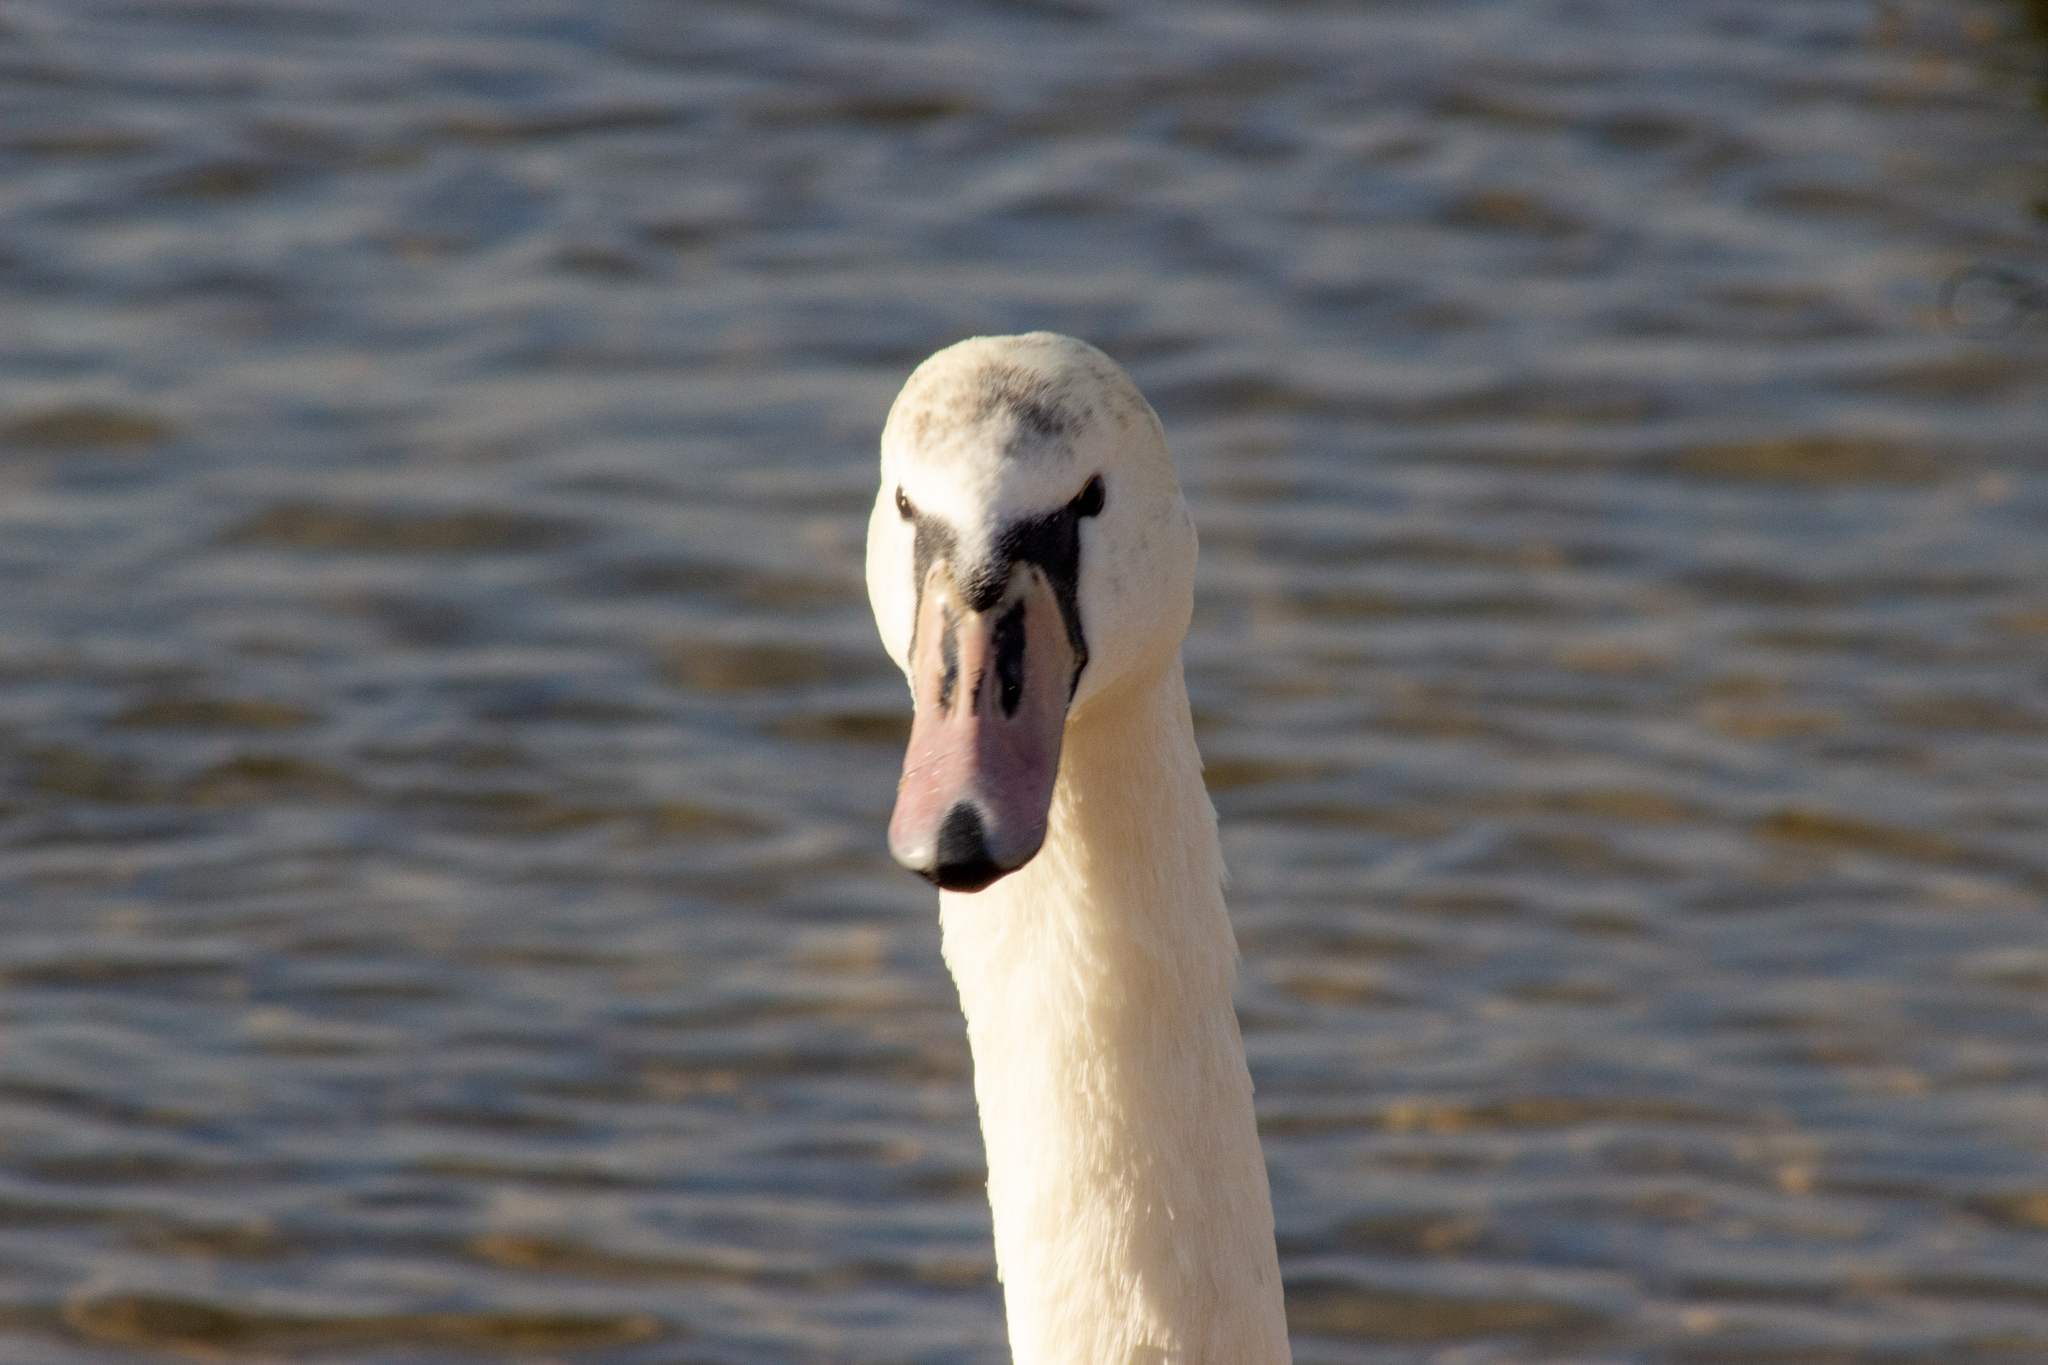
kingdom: Animalia
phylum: Chordata
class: Aves
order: Anseriformes
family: Anatidae
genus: Cygnus
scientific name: Cygnus olor
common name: Mute swan
